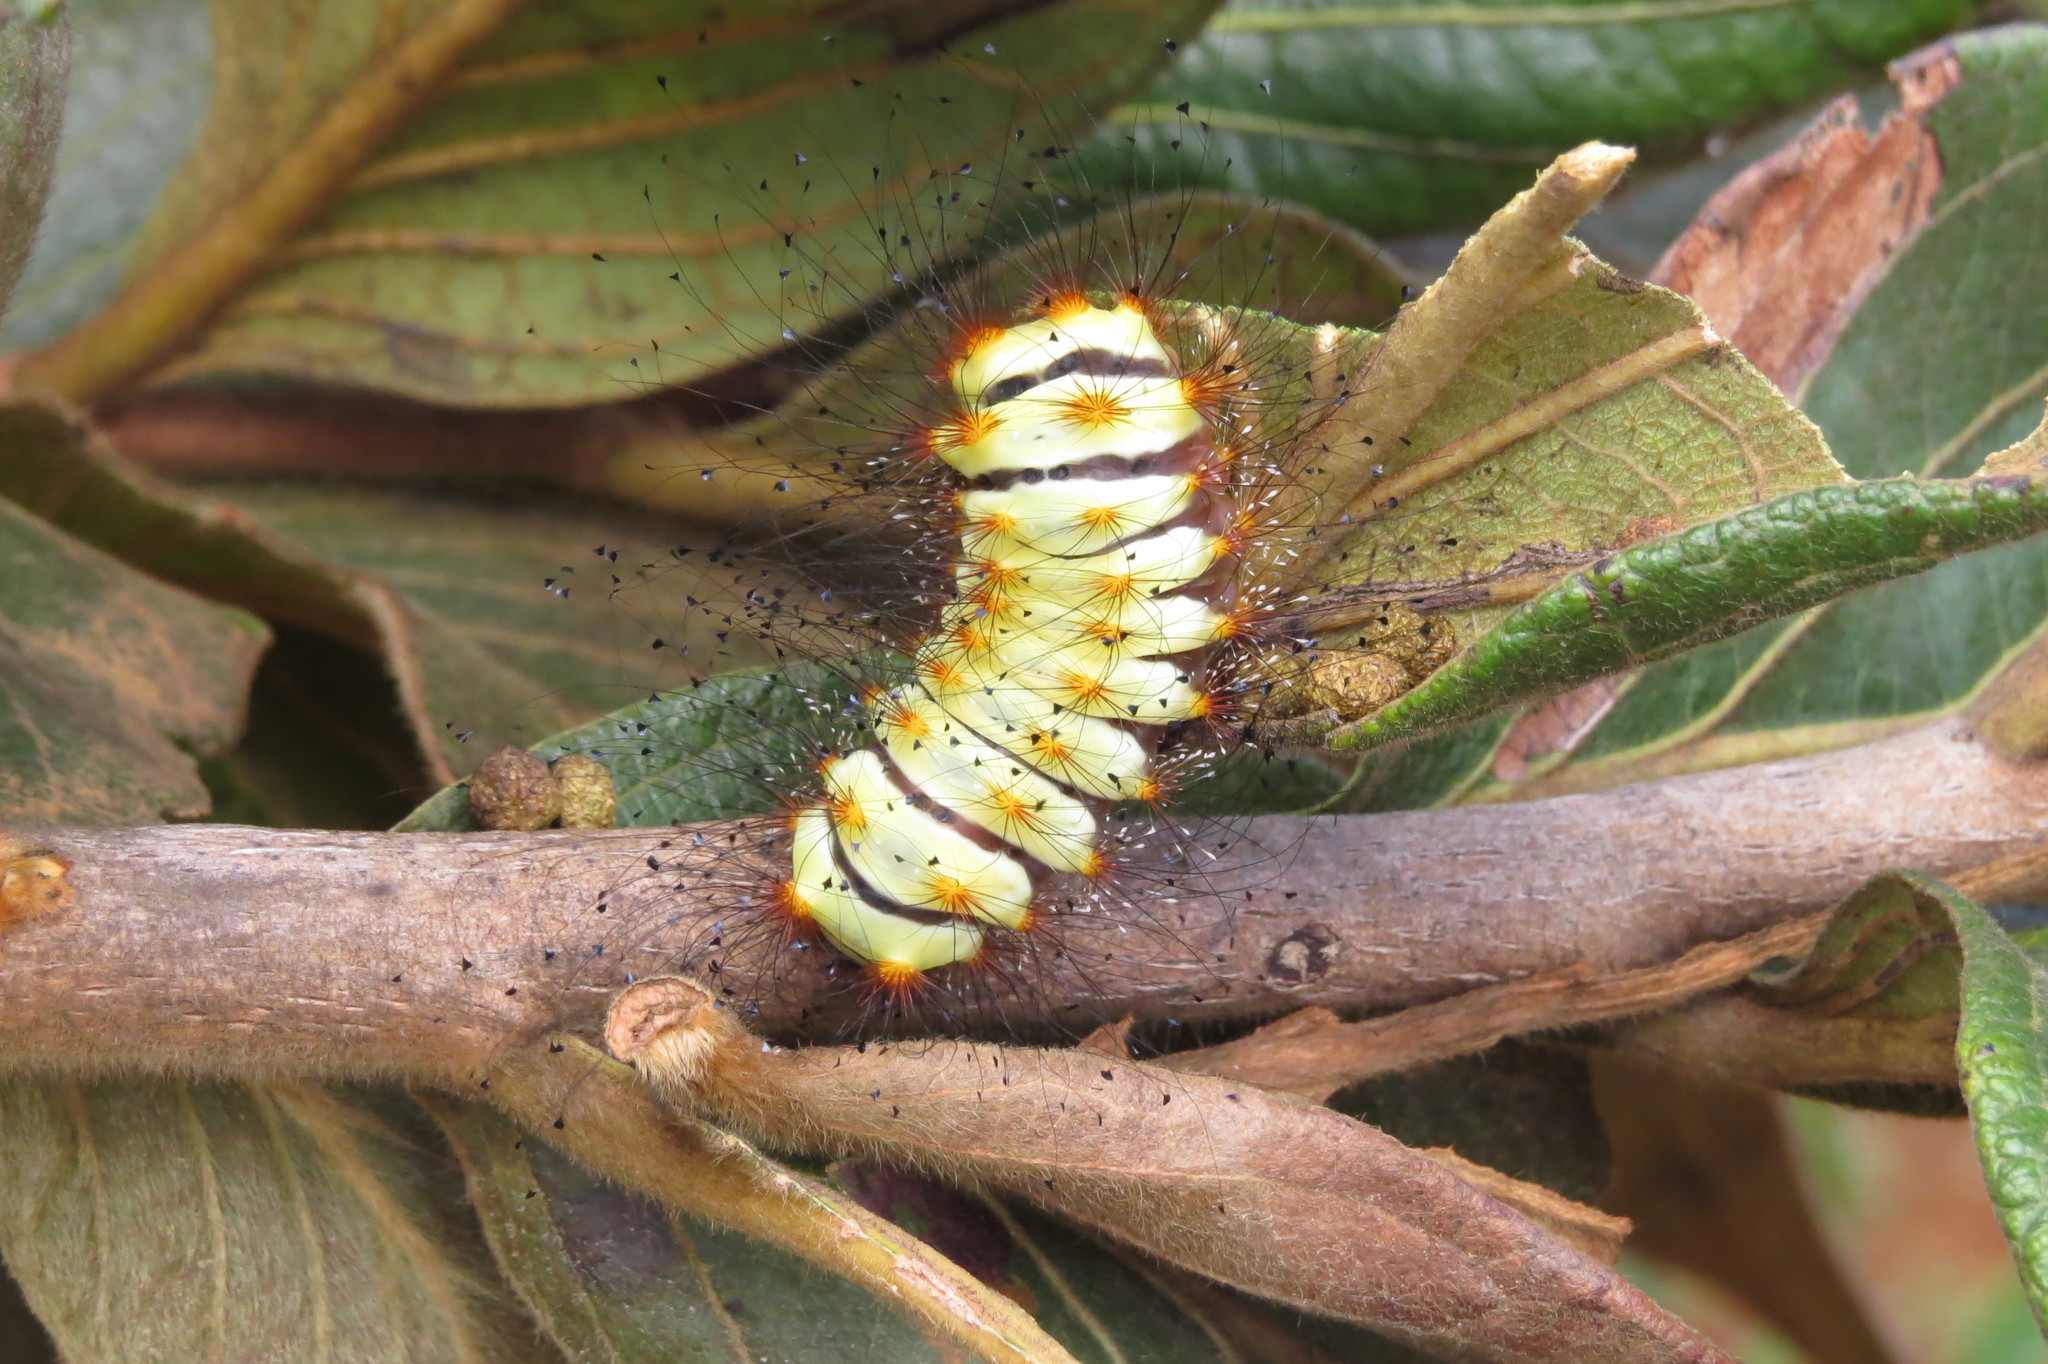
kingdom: Animalia
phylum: Arthropoda
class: Insecta
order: Lepidoptera
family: Megalopygidae
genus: Megalopyge
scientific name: Megalopyge lanata
